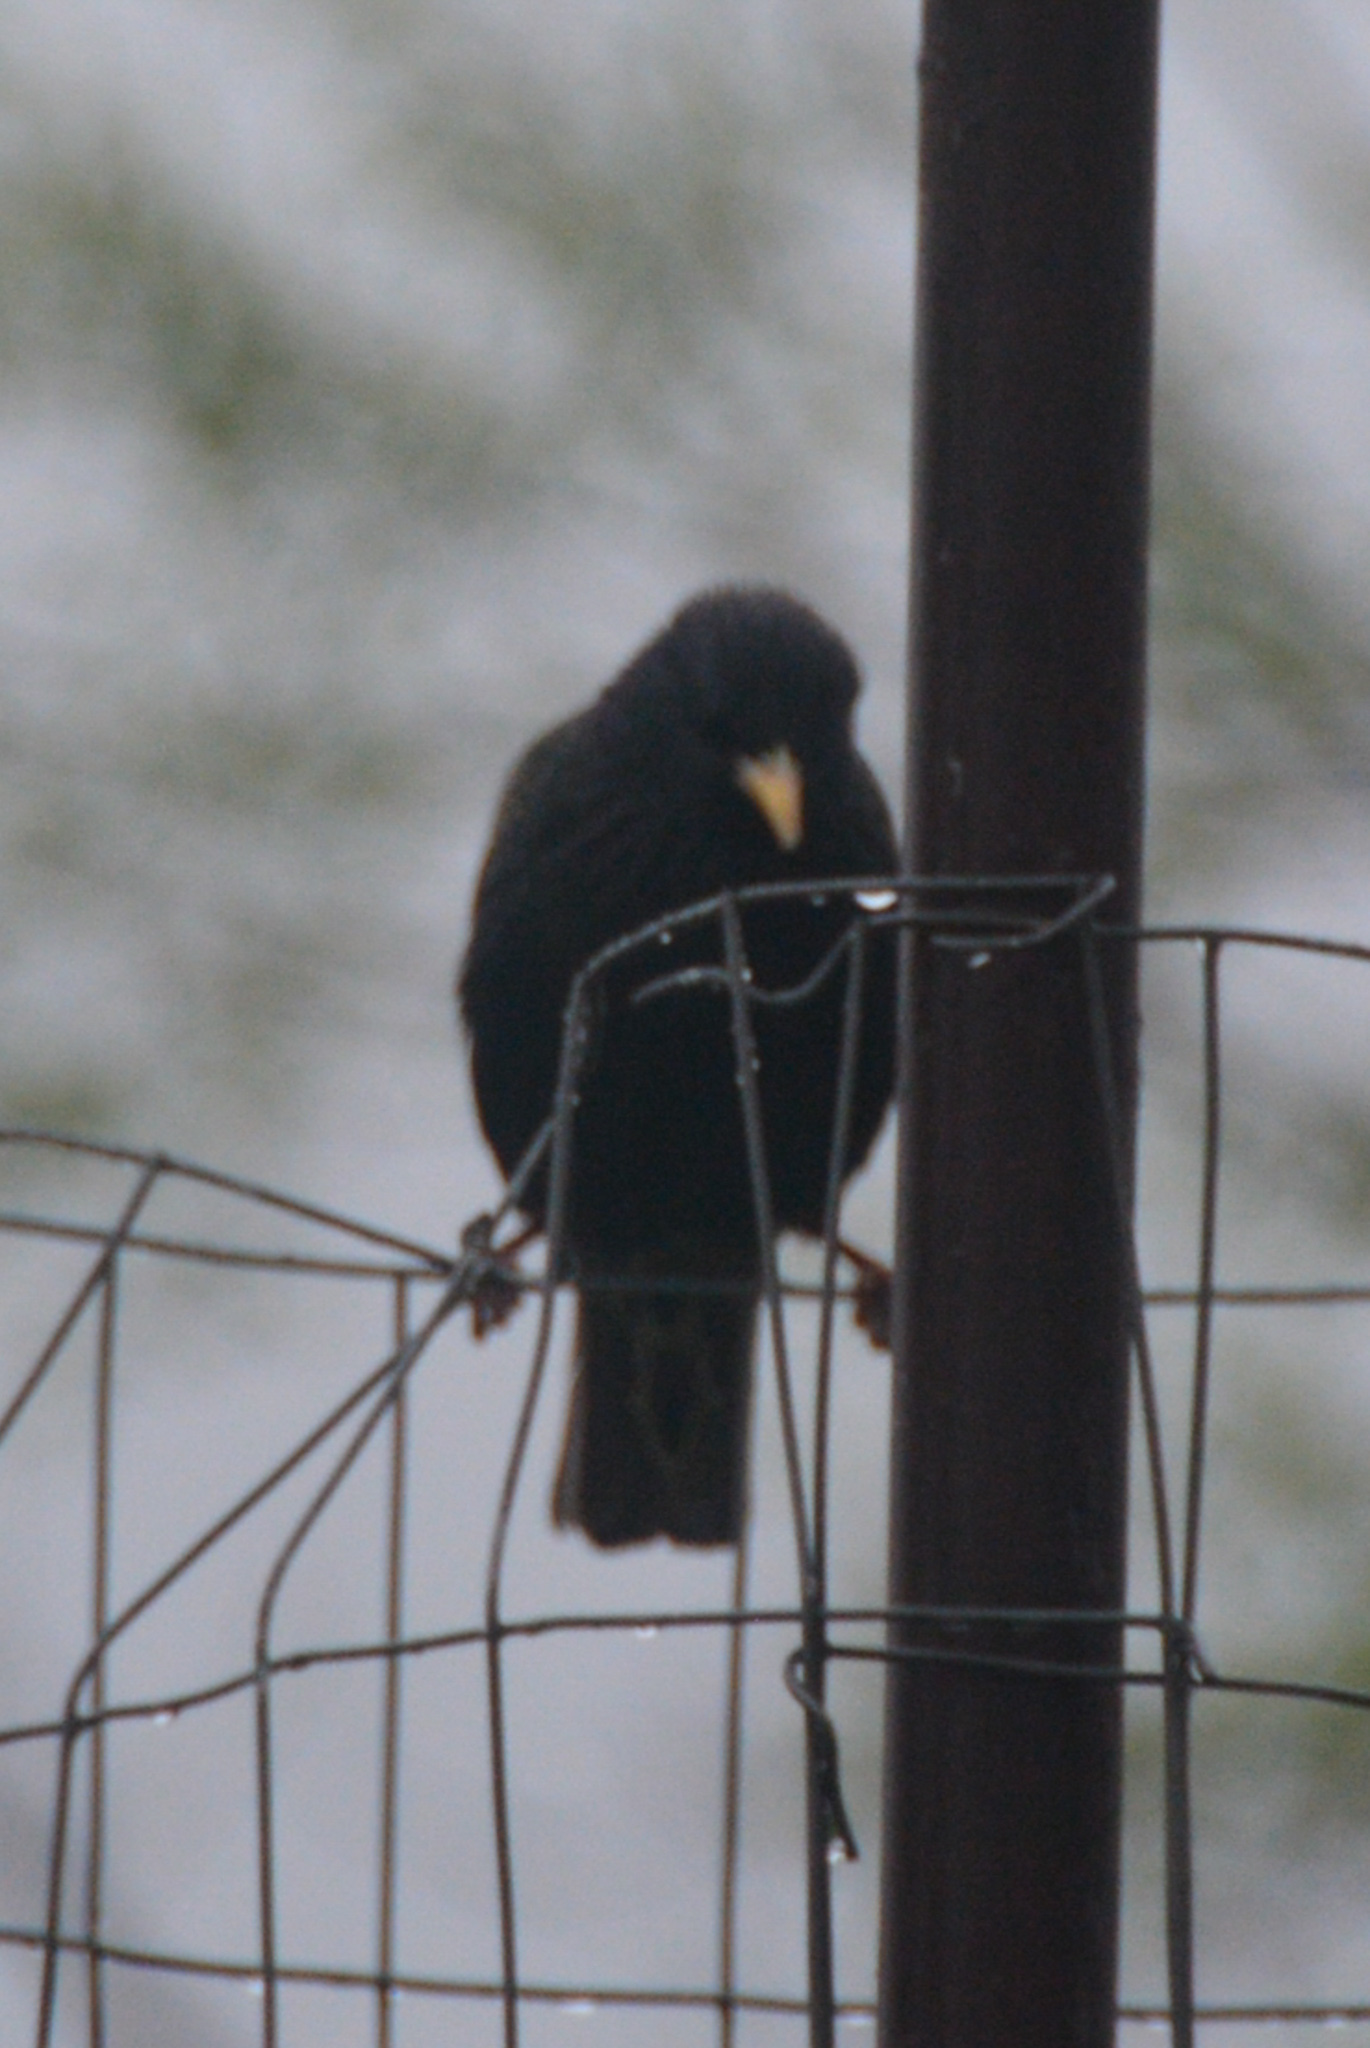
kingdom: Animalia
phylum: Chordata
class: Aves
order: Passeriformes
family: Sturnidae
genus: Sturnus
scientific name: Sturnus vulgaris
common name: Common starling
